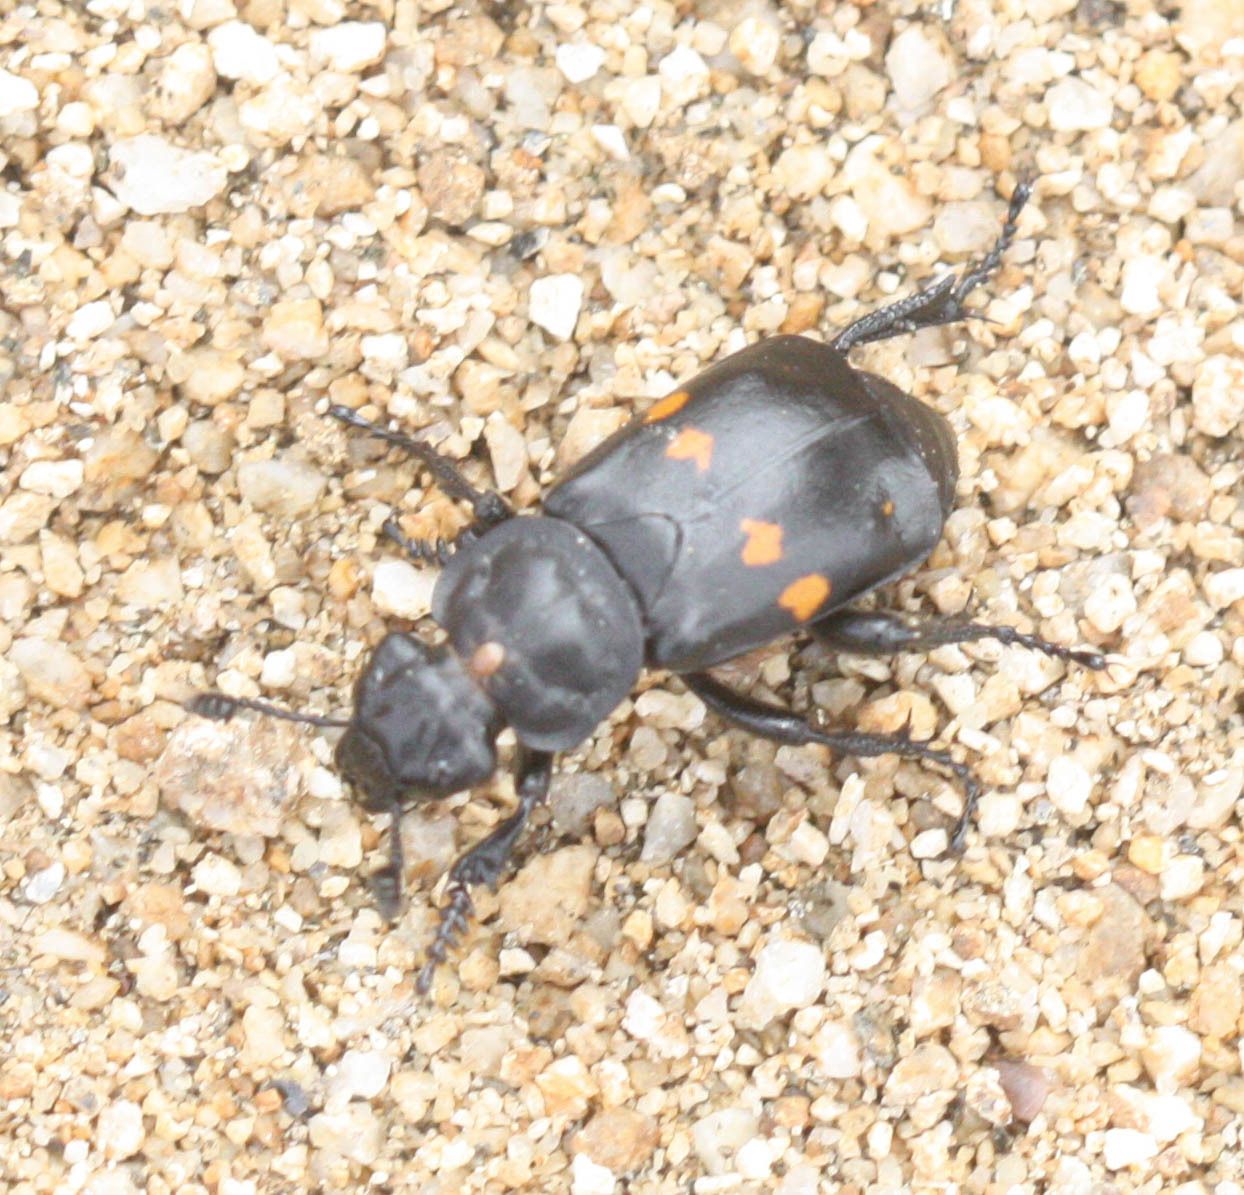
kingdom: Animalia
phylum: Arthropoda
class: Insecta
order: Coleoptera
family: Staphylinidae
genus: Nicrophorus
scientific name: Nicrophorus defodiens
